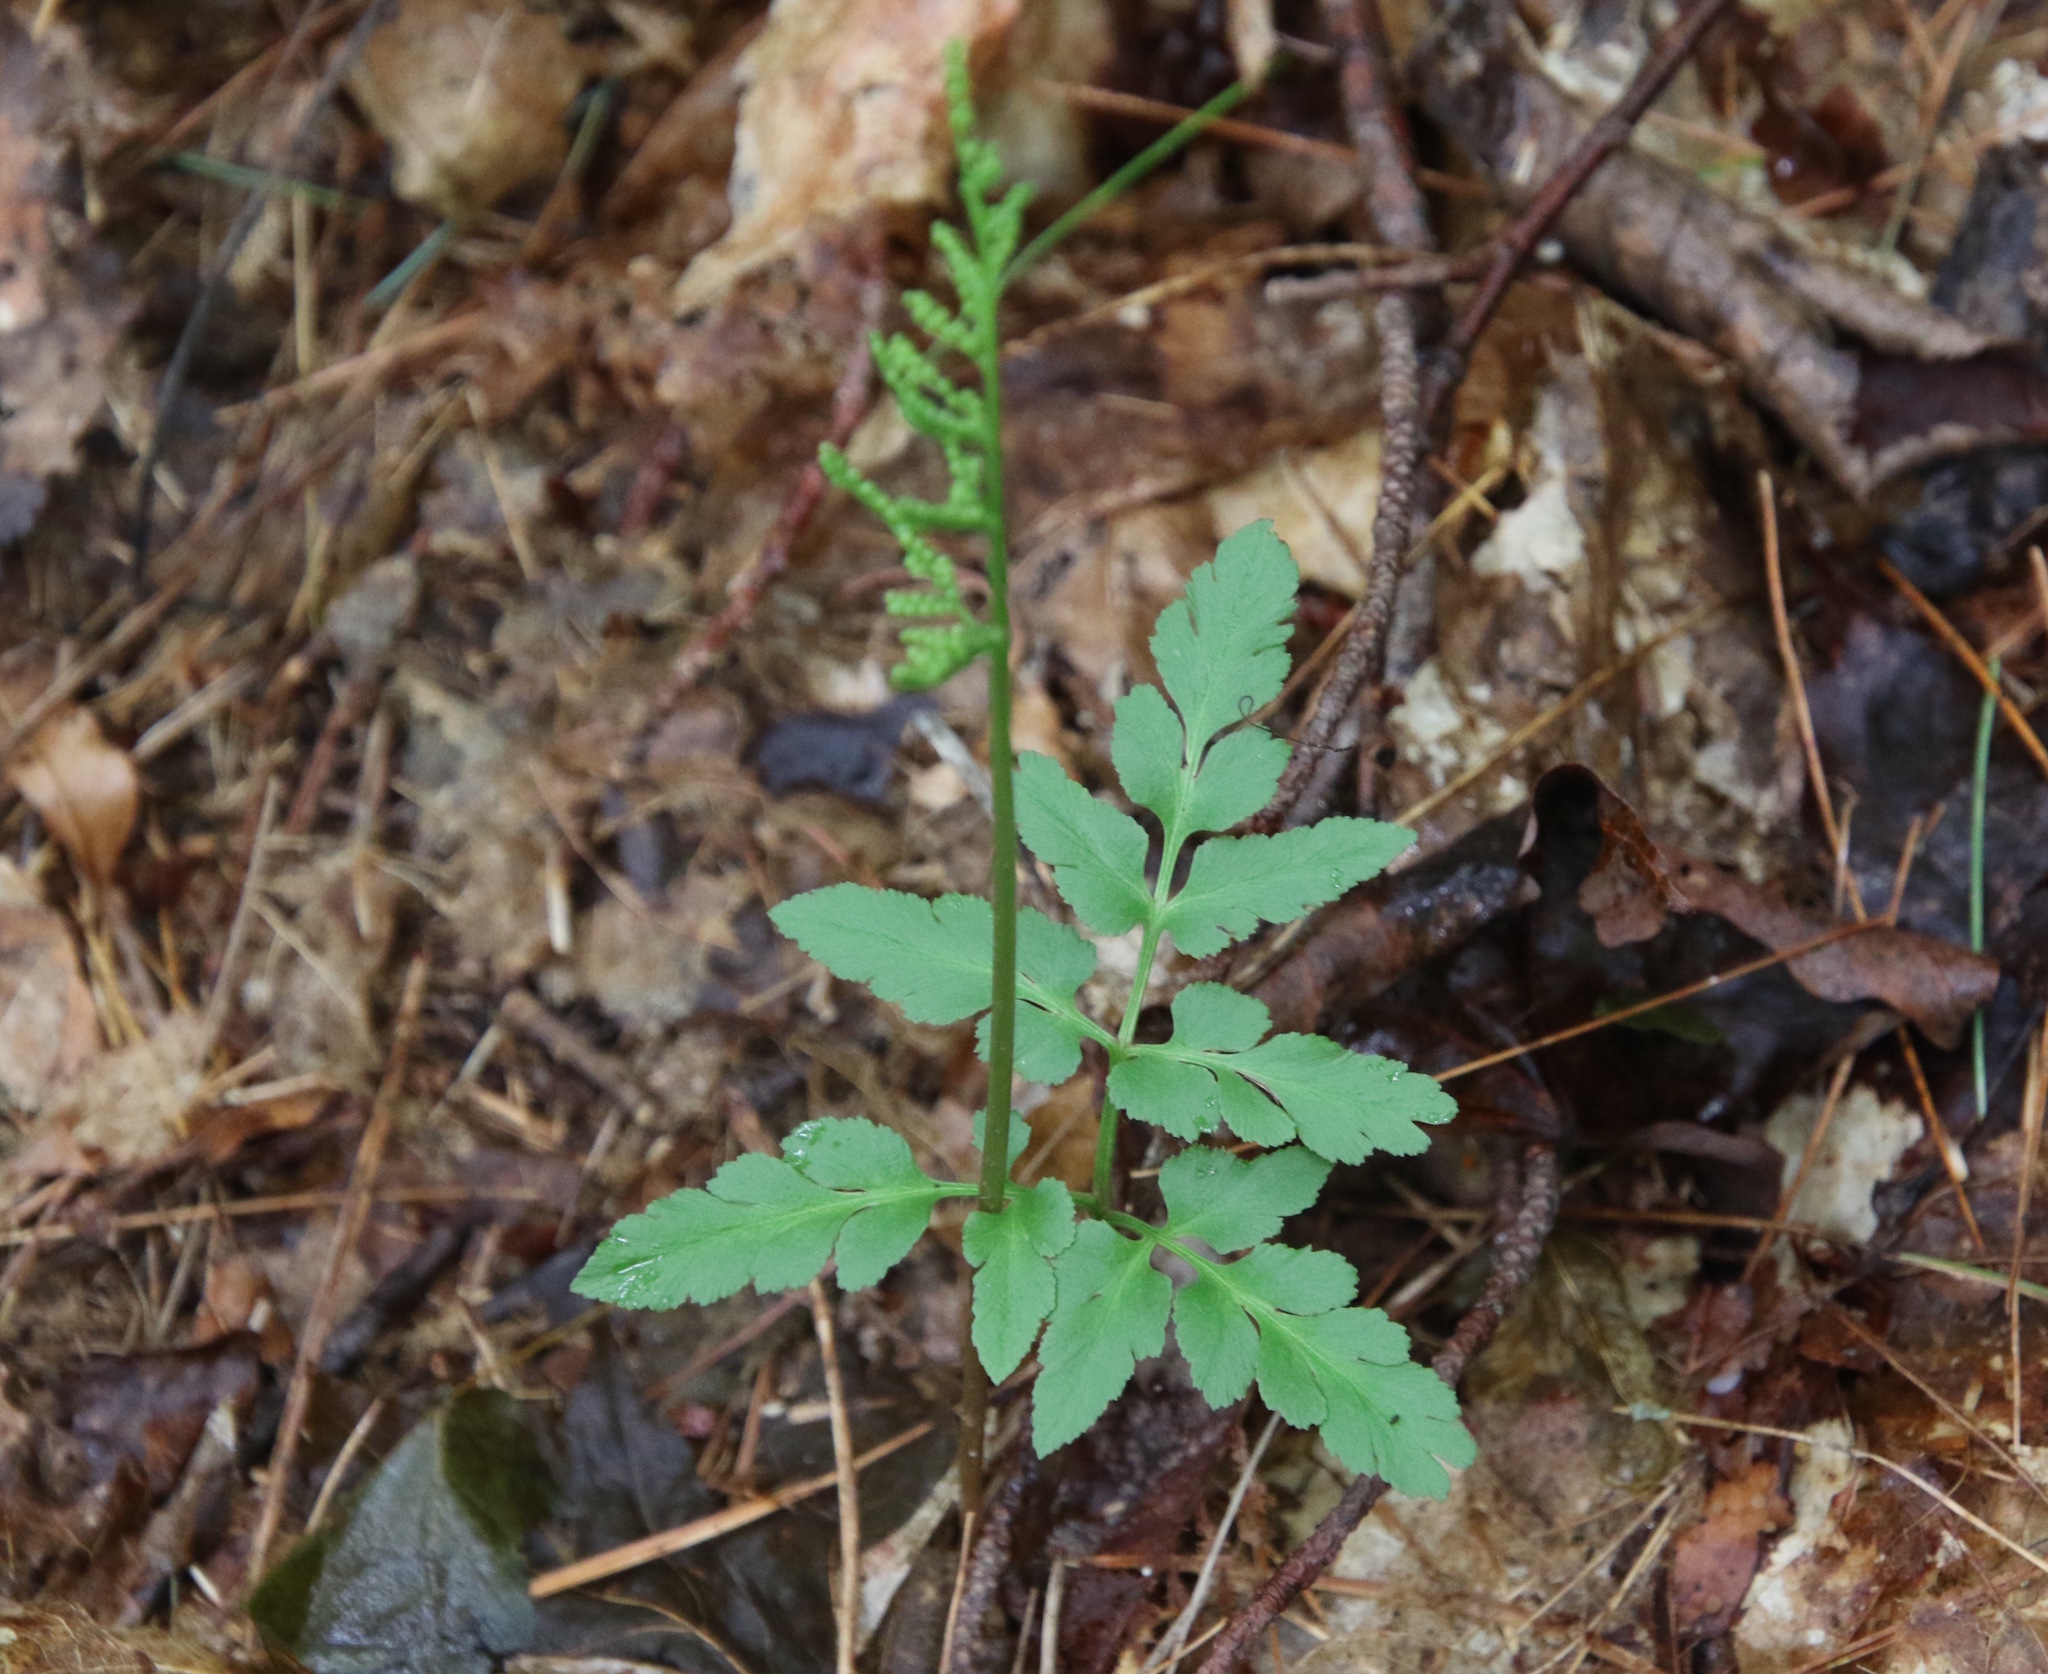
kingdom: Plantae
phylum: Tracheophyta
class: Polypodiopsida
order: Ophioglossales
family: Ophioglossaceae
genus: Sceptridium
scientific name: Sceptridium dissectum
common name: Cut-leaved grapefern
